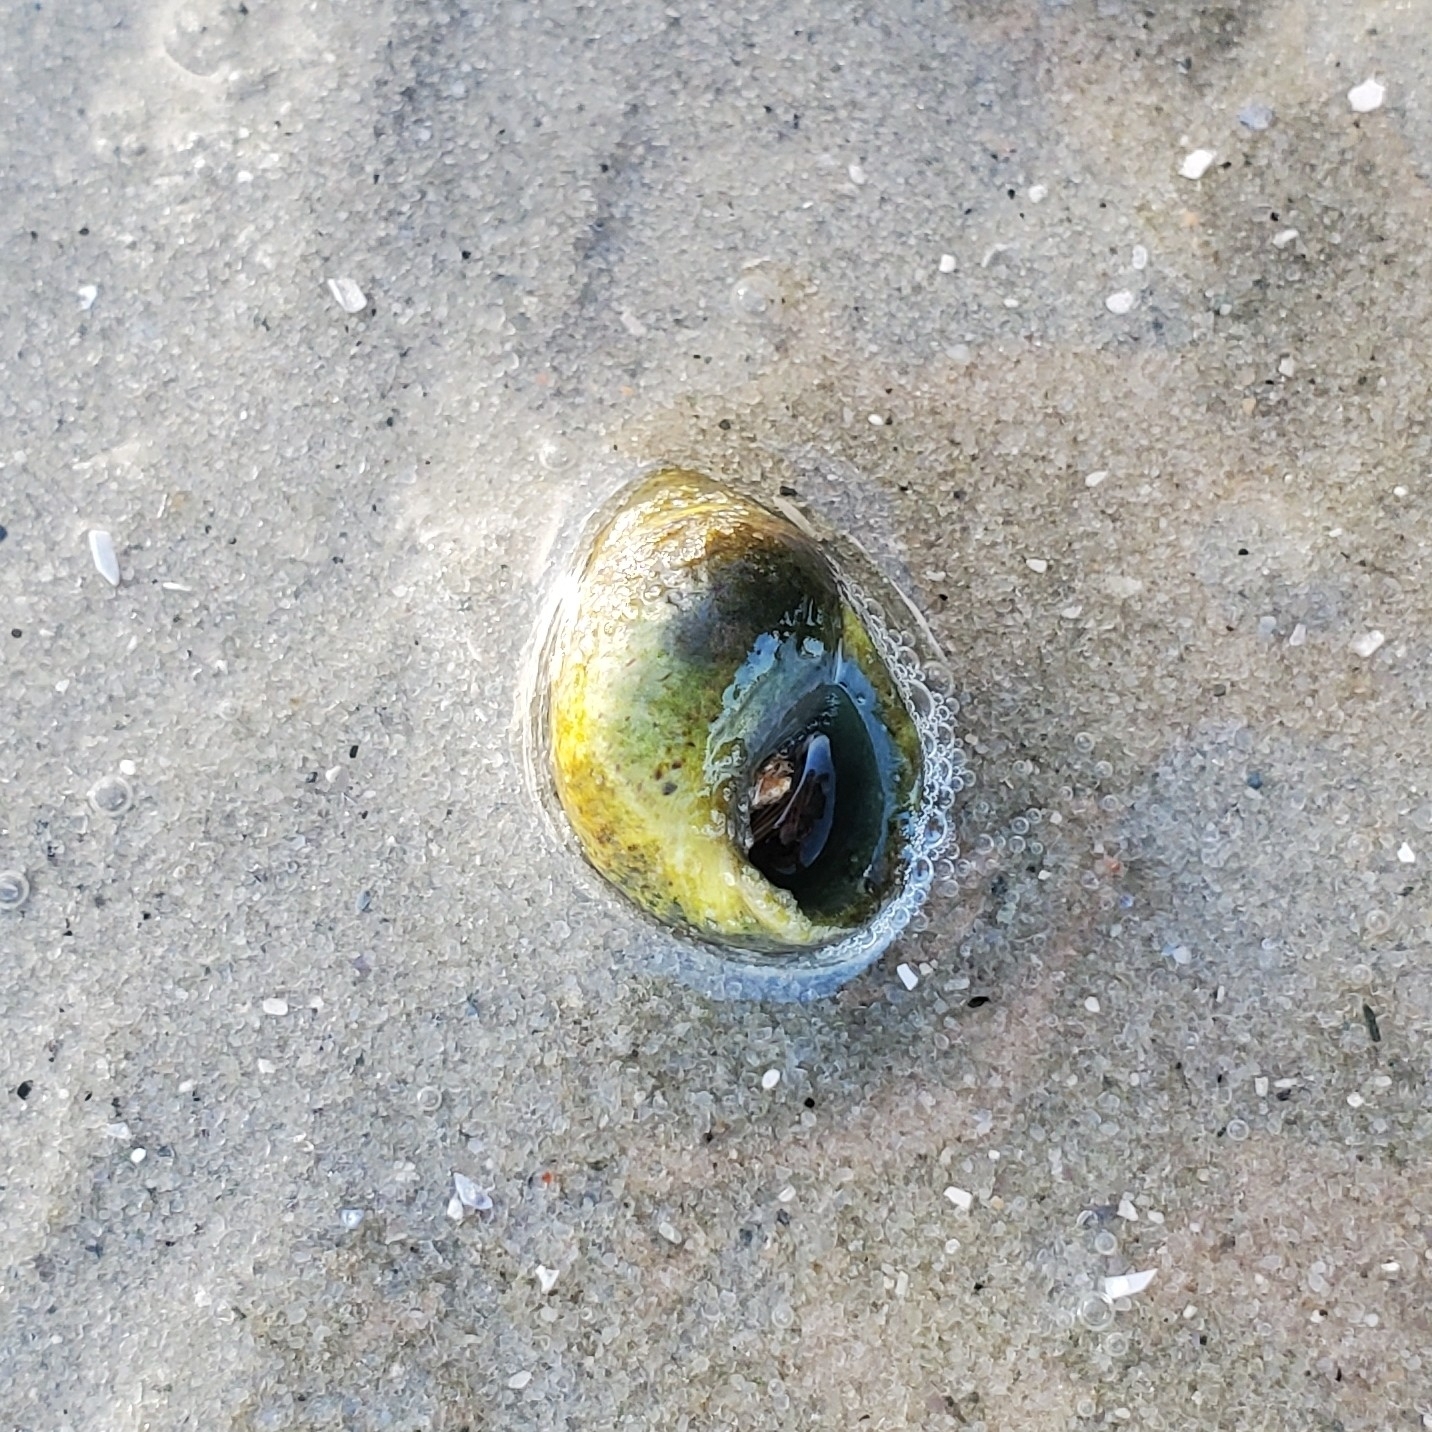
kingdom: Animalia
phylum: Arthropoda
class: Malacostraca
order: Decapoda
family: Diogenidae
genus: Clibanarius
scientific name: Clibanarius vittatus
